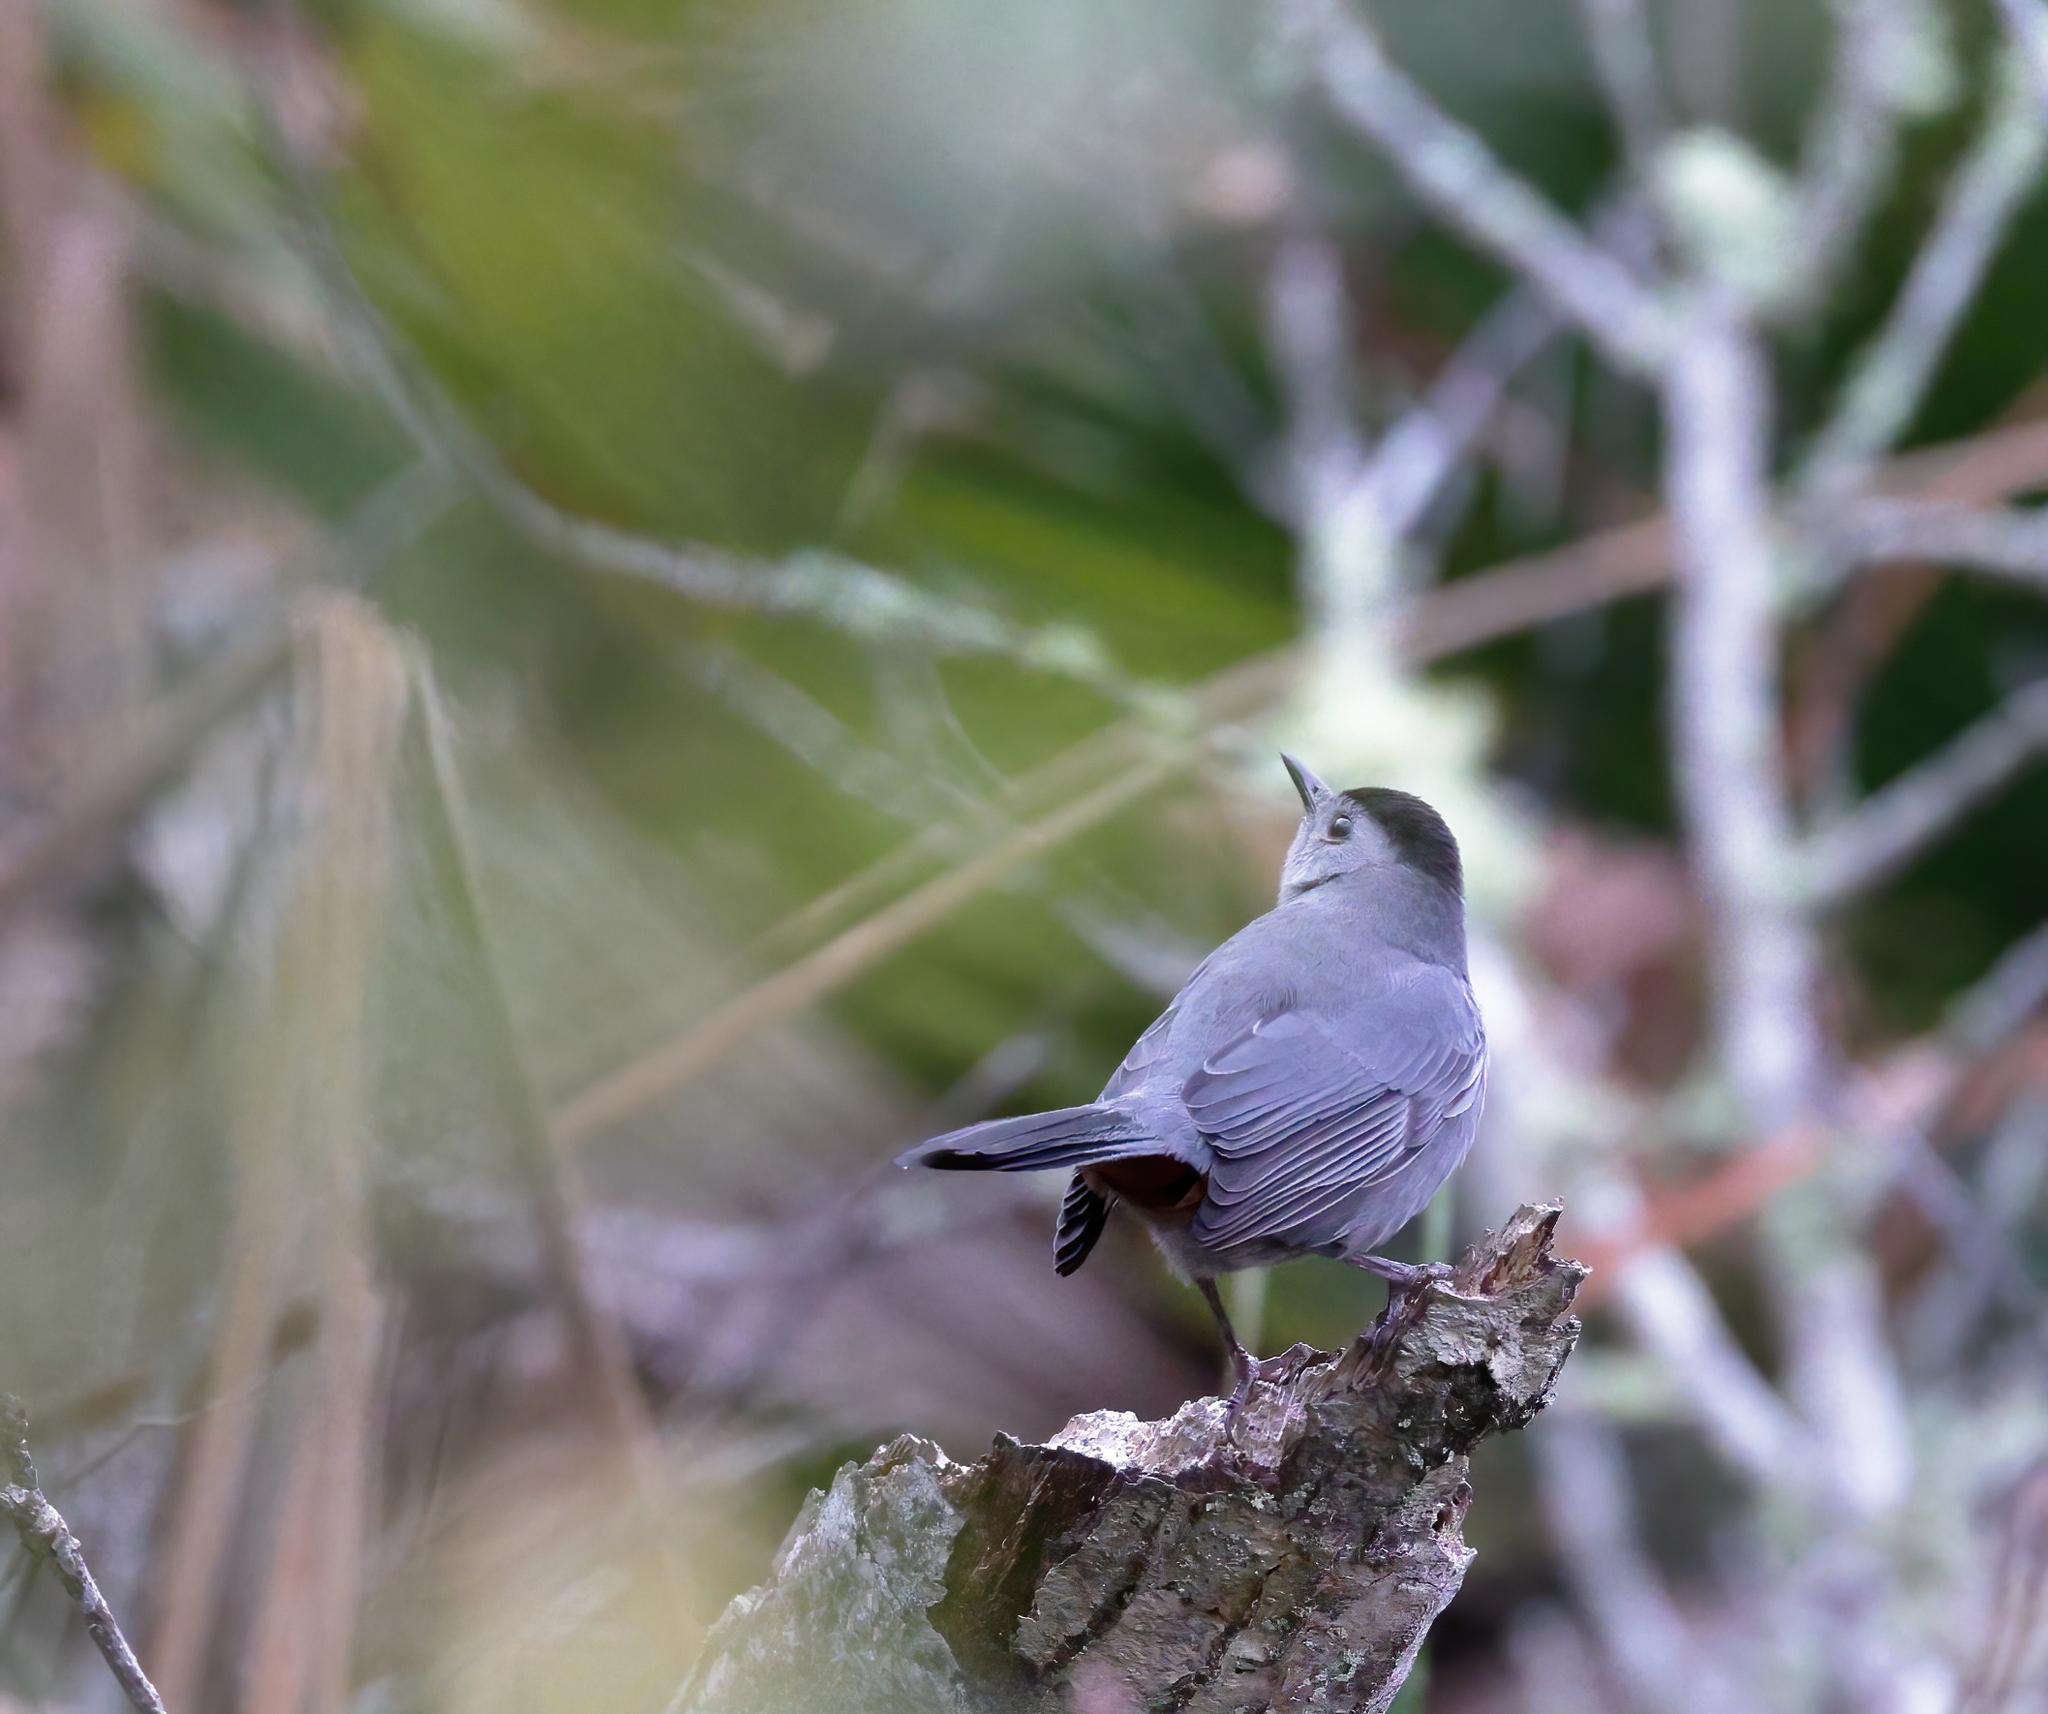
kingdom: Animalia
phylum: Chordata
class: Aves
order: Passeriformes
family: Mimidae
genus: Dumetella
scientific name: Dumetella carolinensis
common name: Gray catbird
